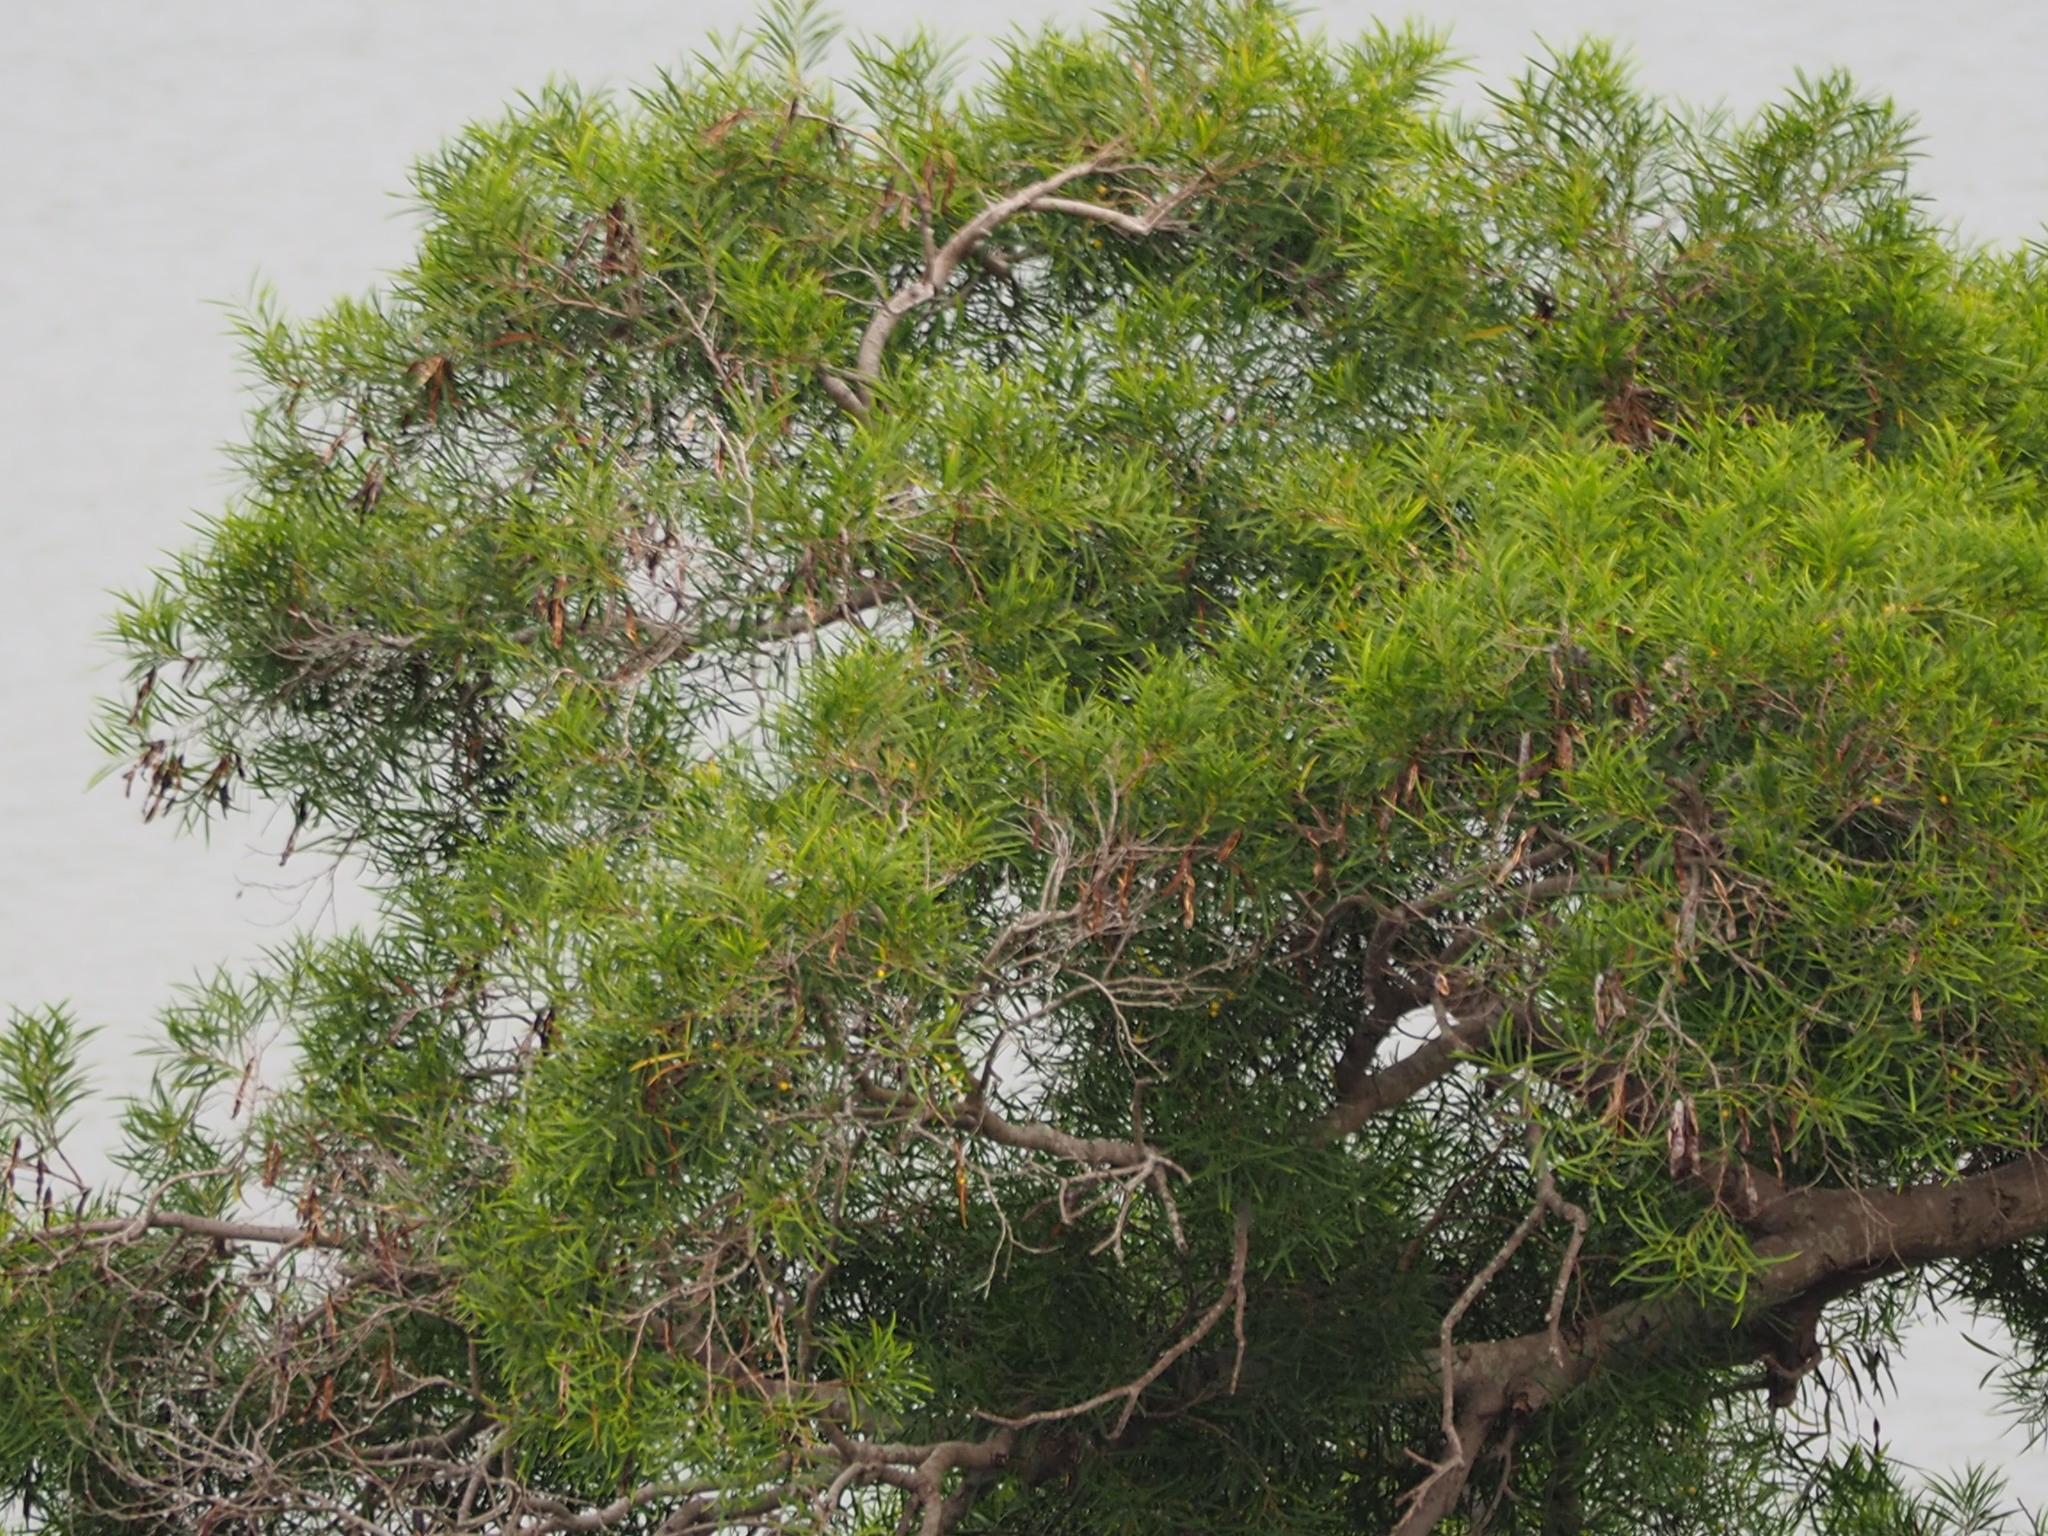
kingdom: Plantae
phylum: Tracheophyta
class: Magnoliopsida
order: Fabales
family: Fabaceae
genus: Acacia
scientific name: Acacia confusa
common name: Formosan koa
